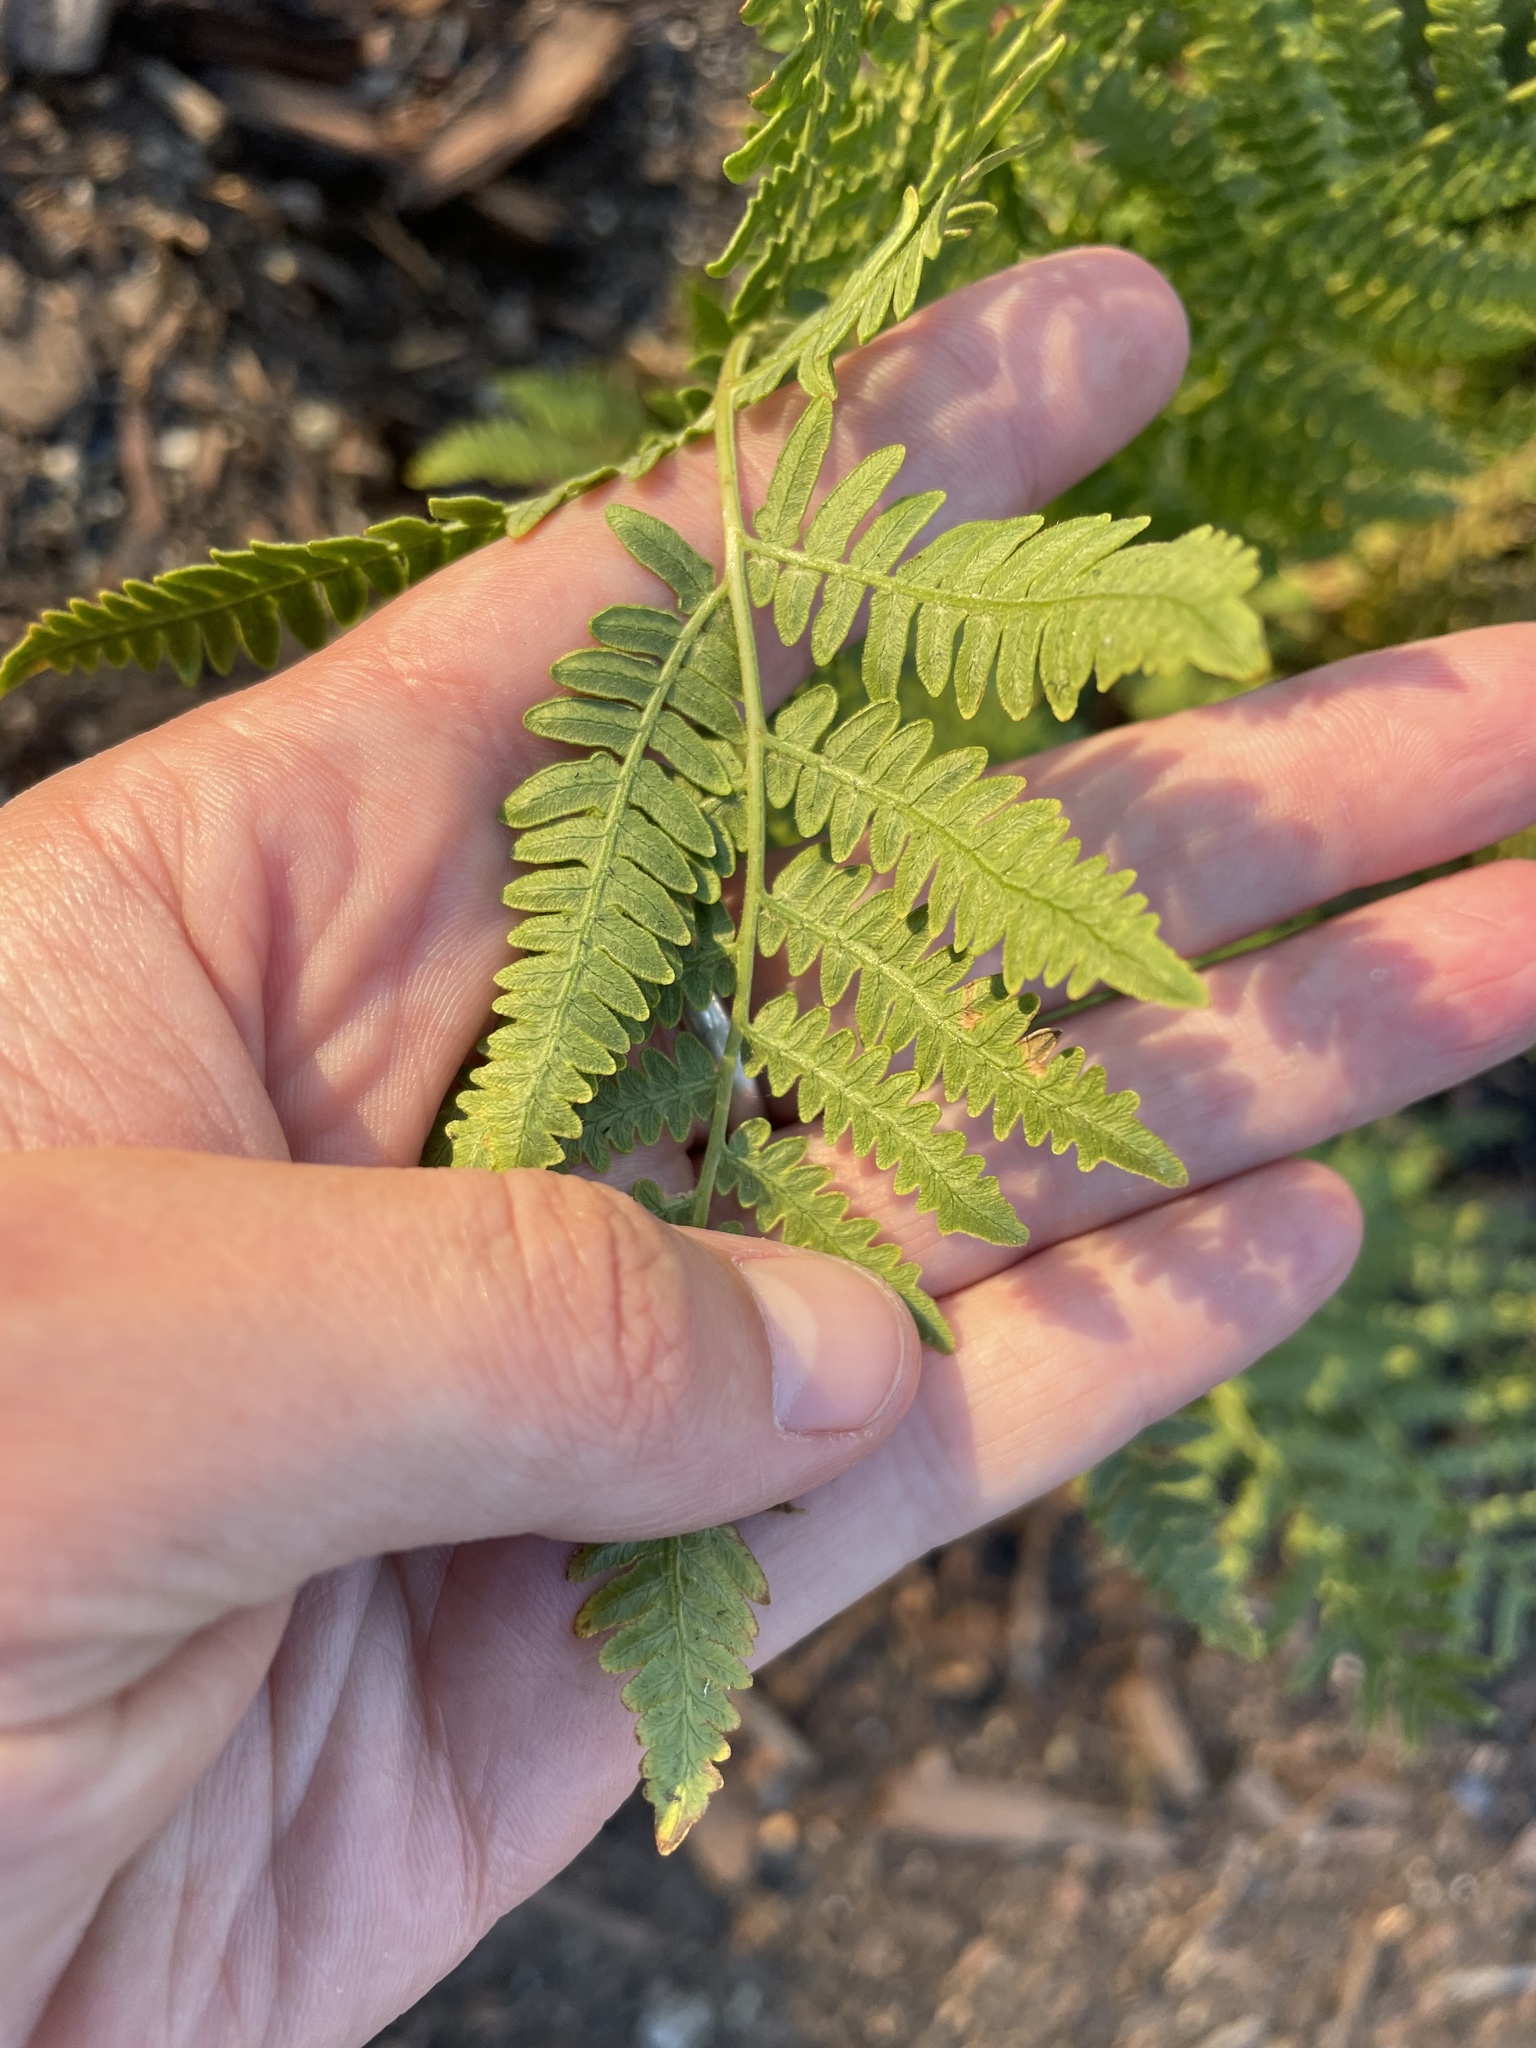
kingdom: Plantae
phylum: Tracheophyta
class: Polypodiopsida
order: Polypodiales
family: Dennstaedtiaceae
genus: Pteridium
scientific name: Pteridium aquilinum
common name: Bracken
